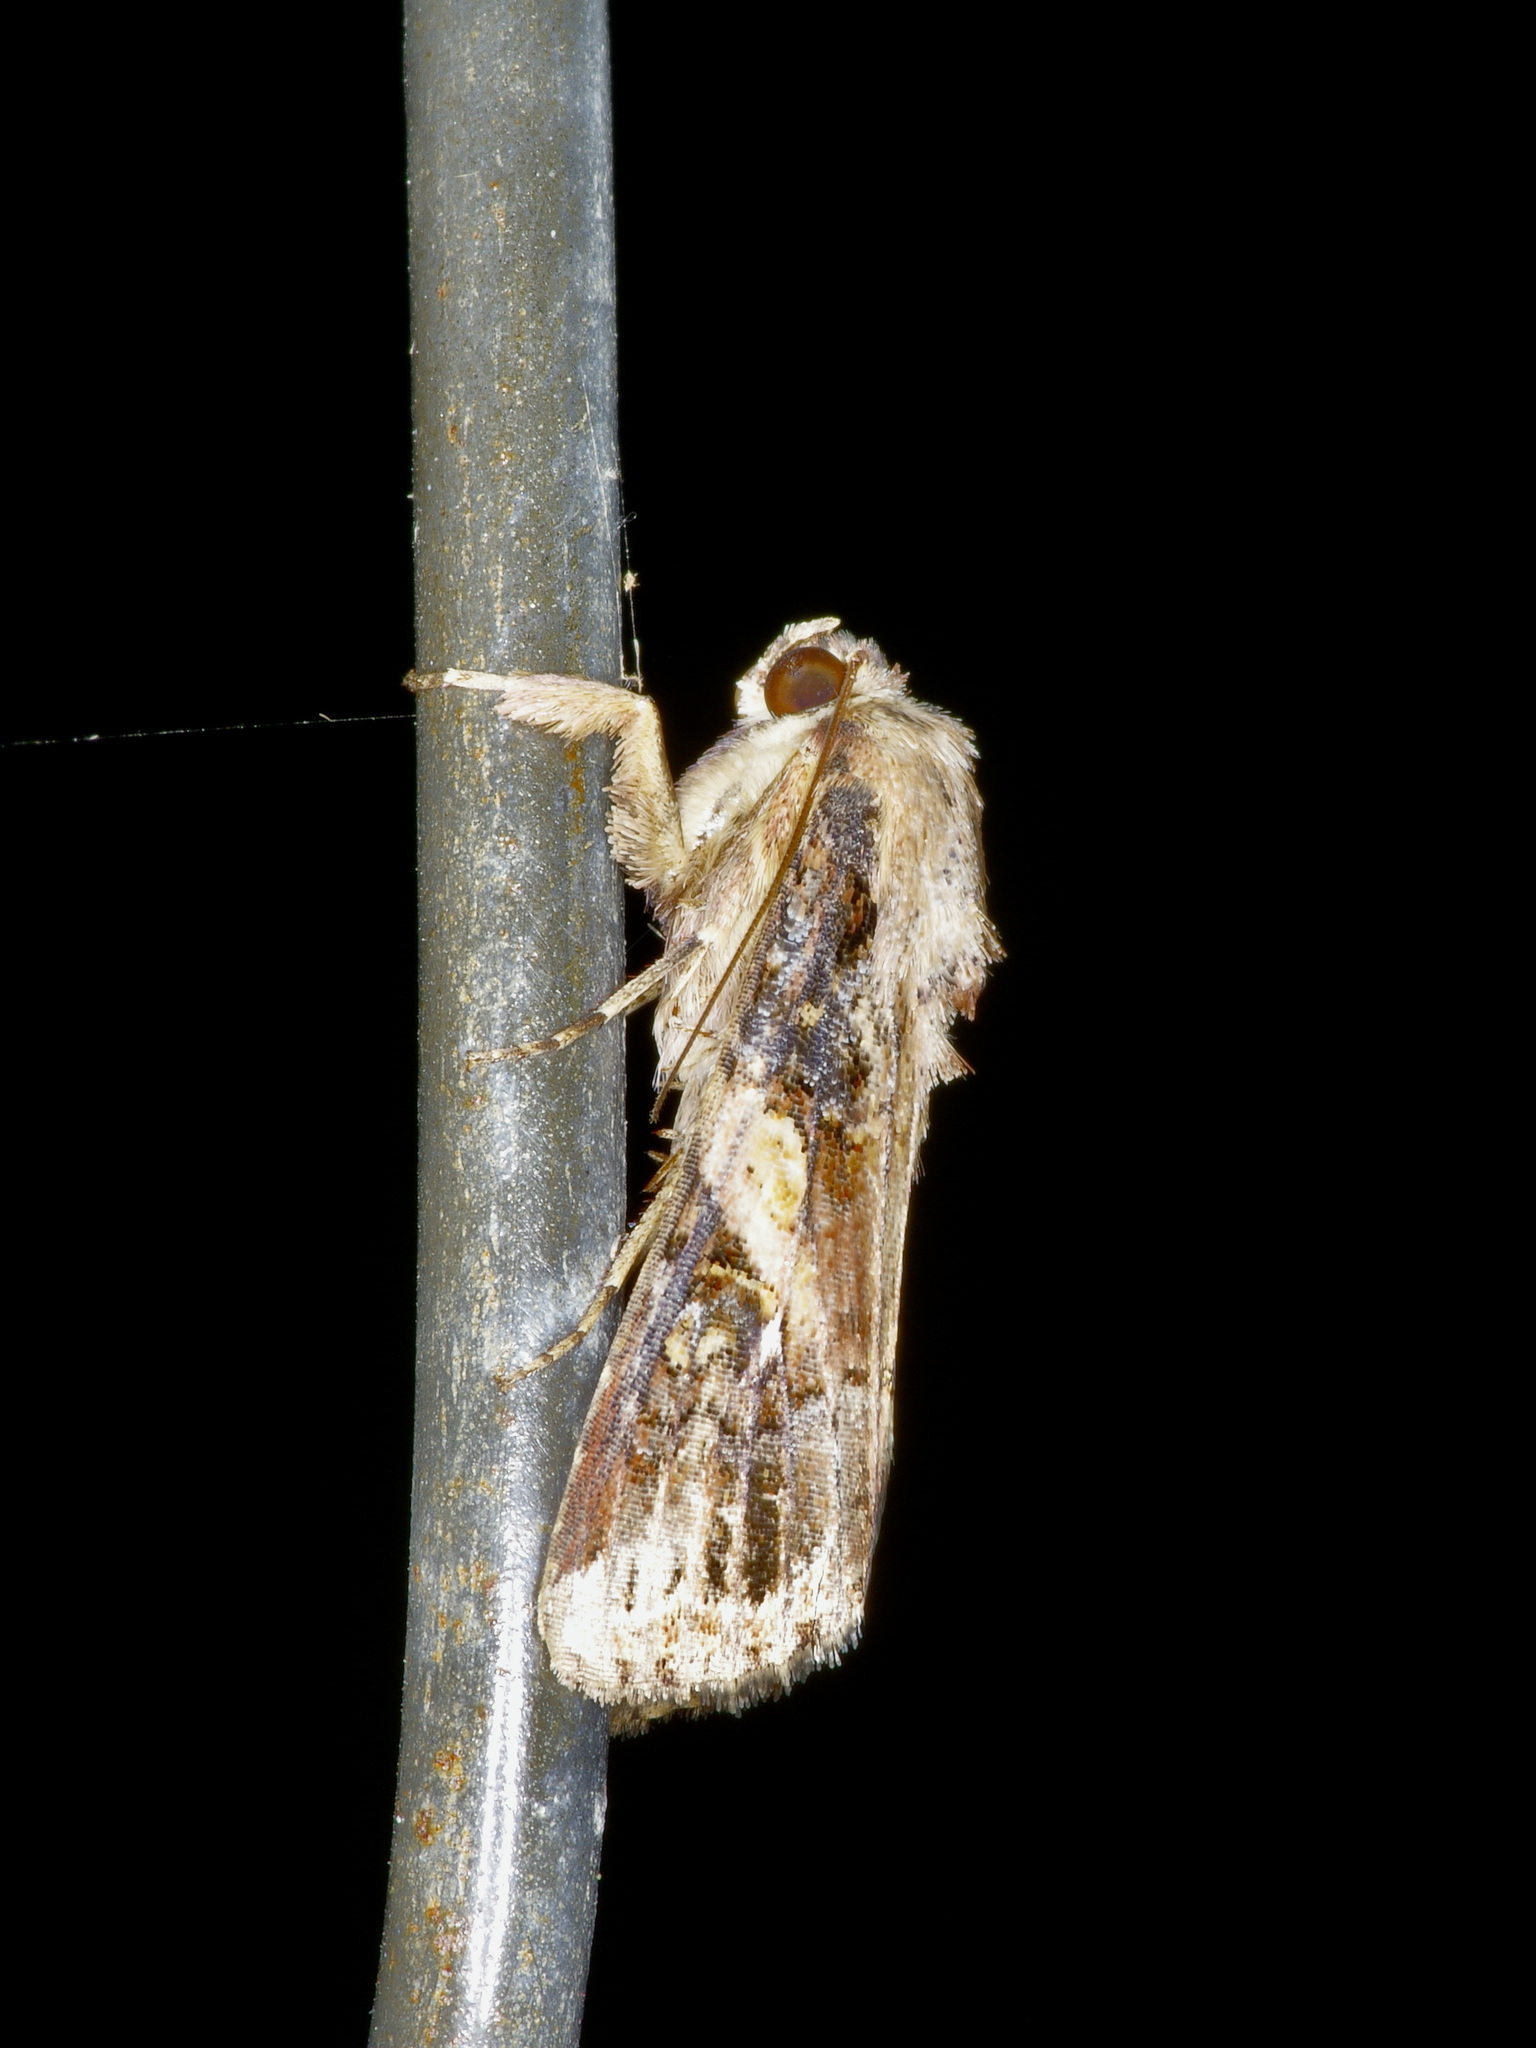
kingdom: Animalia
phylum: Arthropoda
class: Insecta
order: Lepidoptera
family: Noctuidae
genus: Spodoptera
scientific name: Spodoptera frugiperda
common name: Fall armyworm
